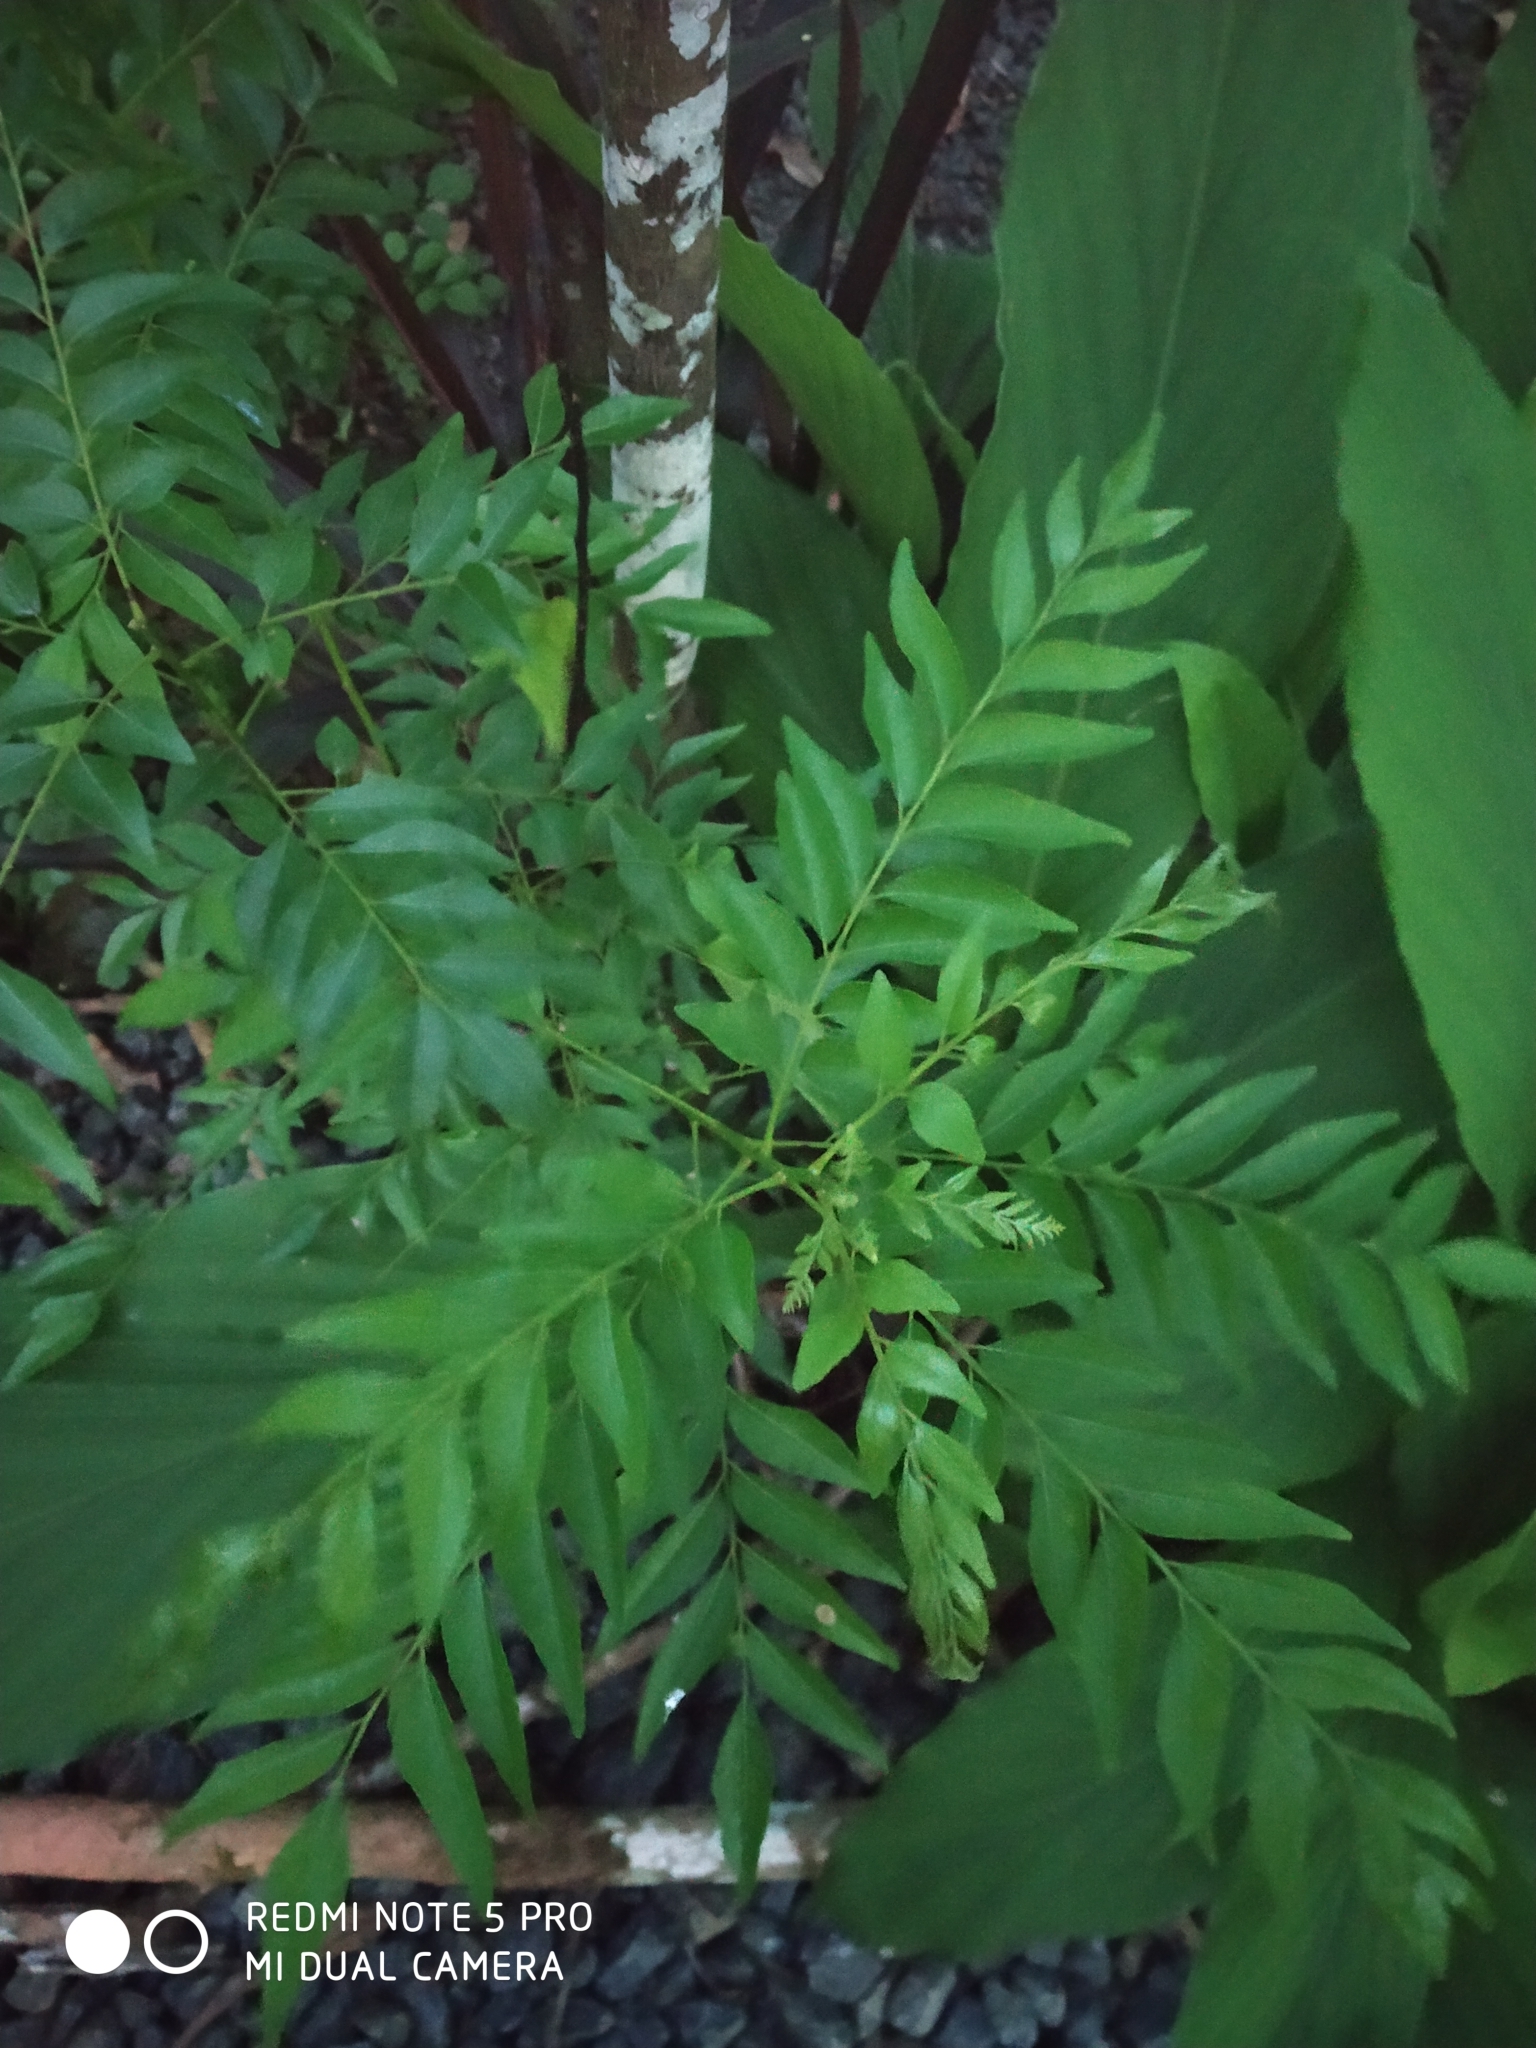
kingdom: Plantae
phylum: Tracheophyta
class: Magnoliopsida
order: Sapindales
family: Rutaceae
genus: Murraya
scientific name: Murraya koenigii
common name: Curry-plant
